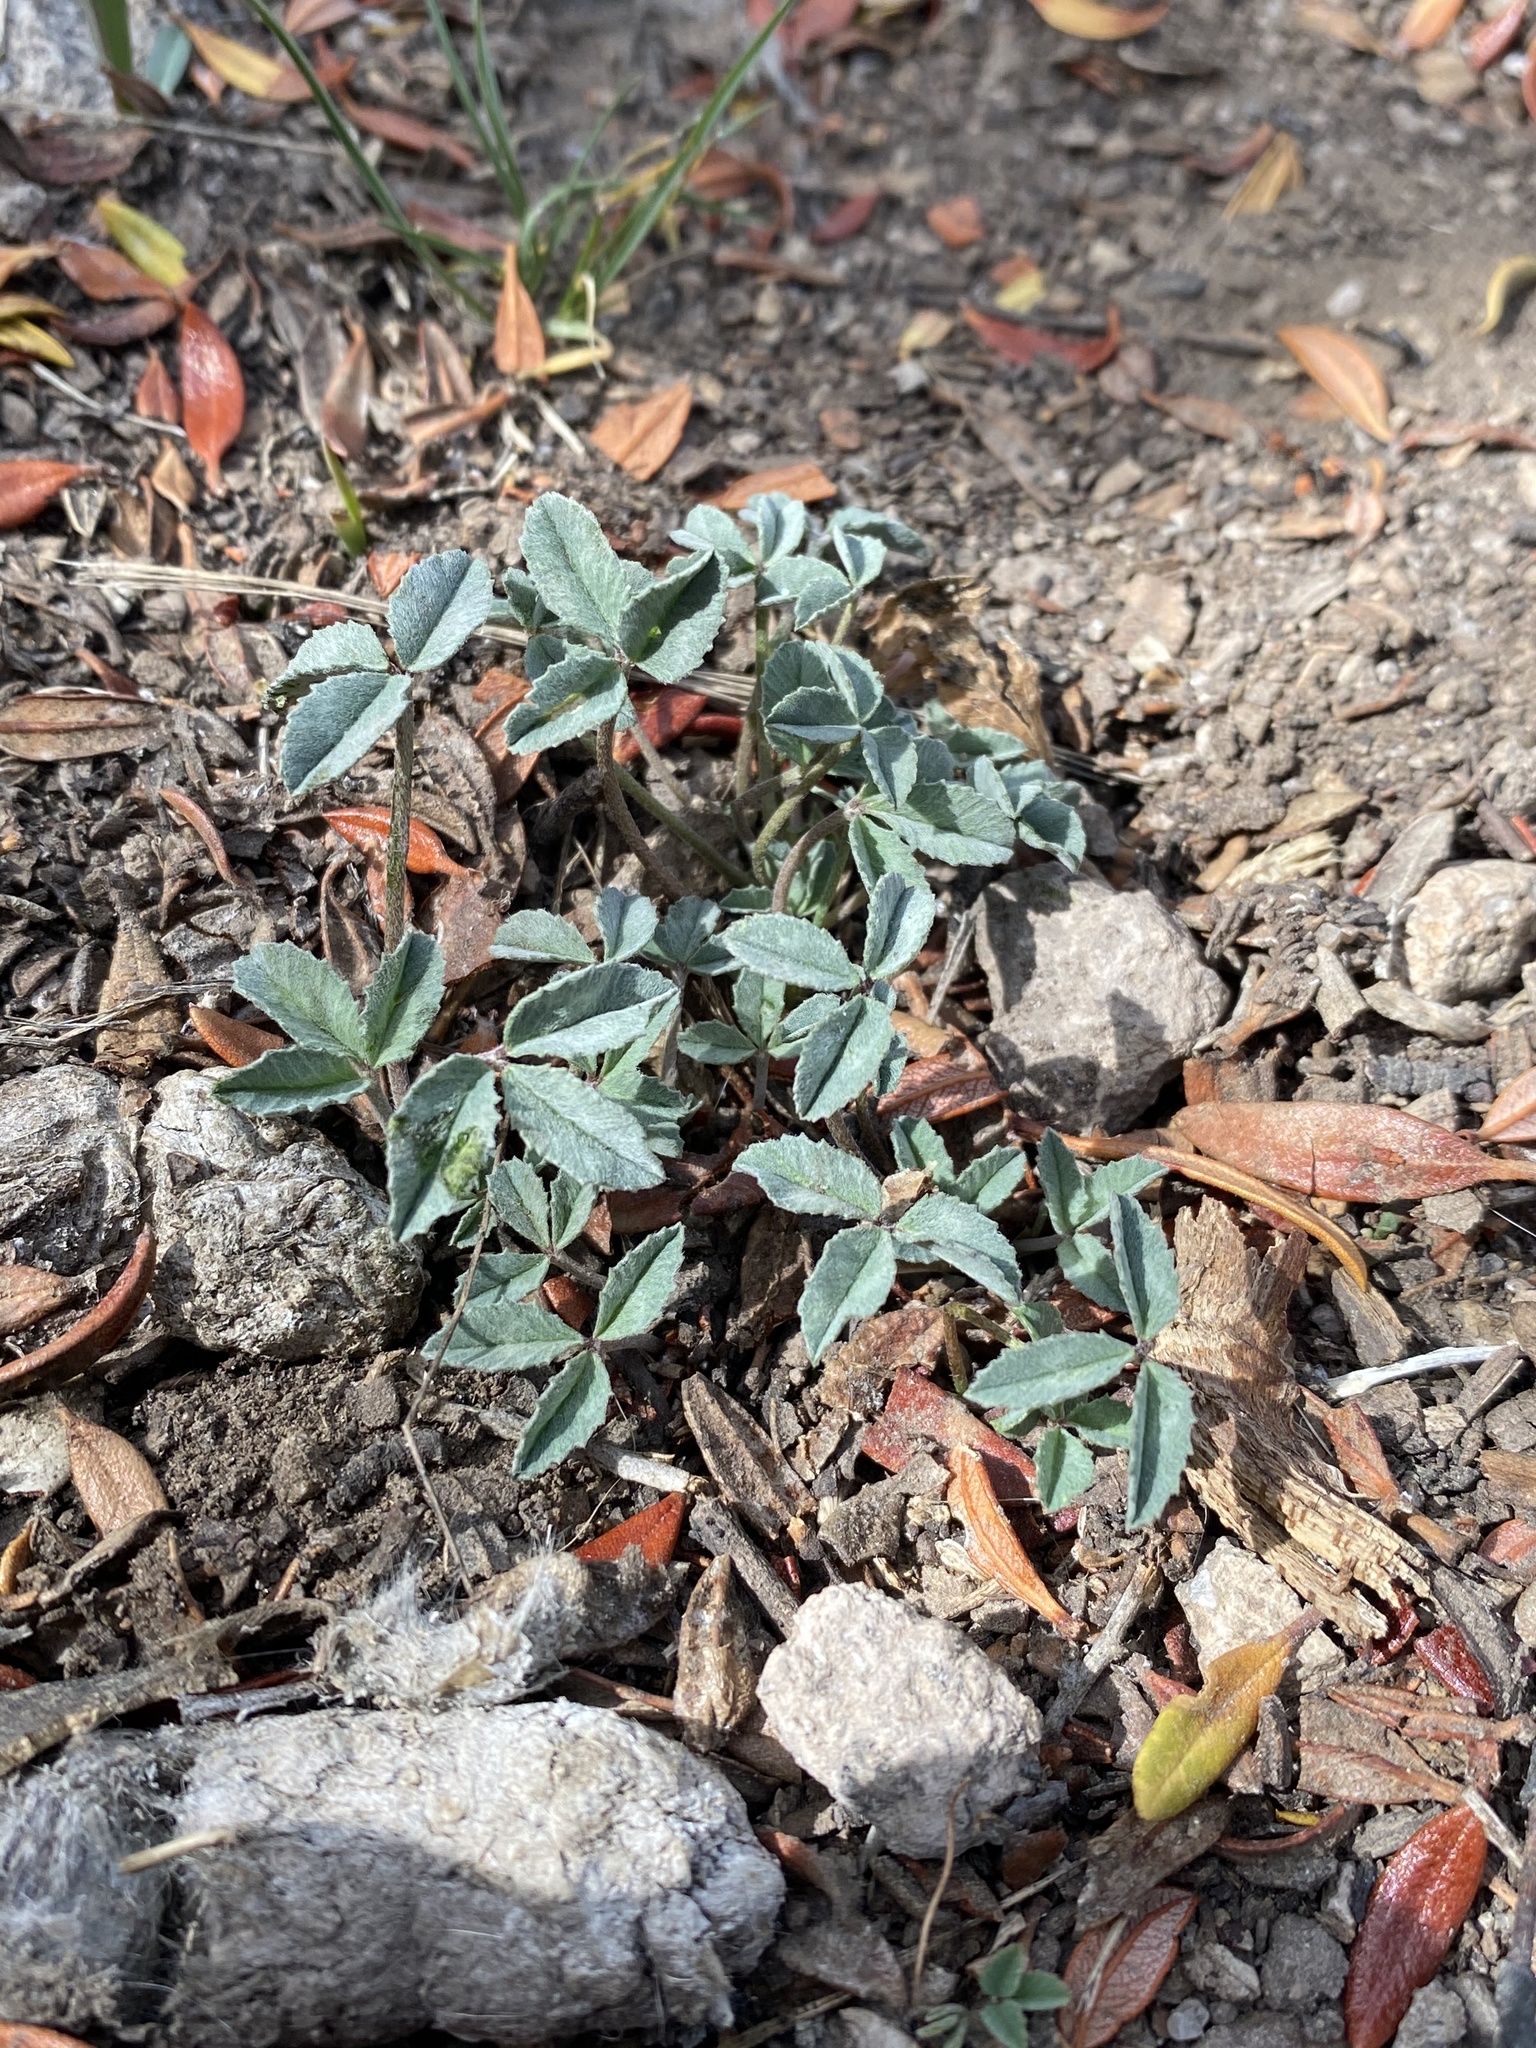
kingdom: Plantae
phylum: Tracheophyta
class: Magnoliopsida
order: Fabales
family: Fabaceae
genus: Trifolium
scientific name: Trifolium gymnocarpon
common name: Tufted clover
